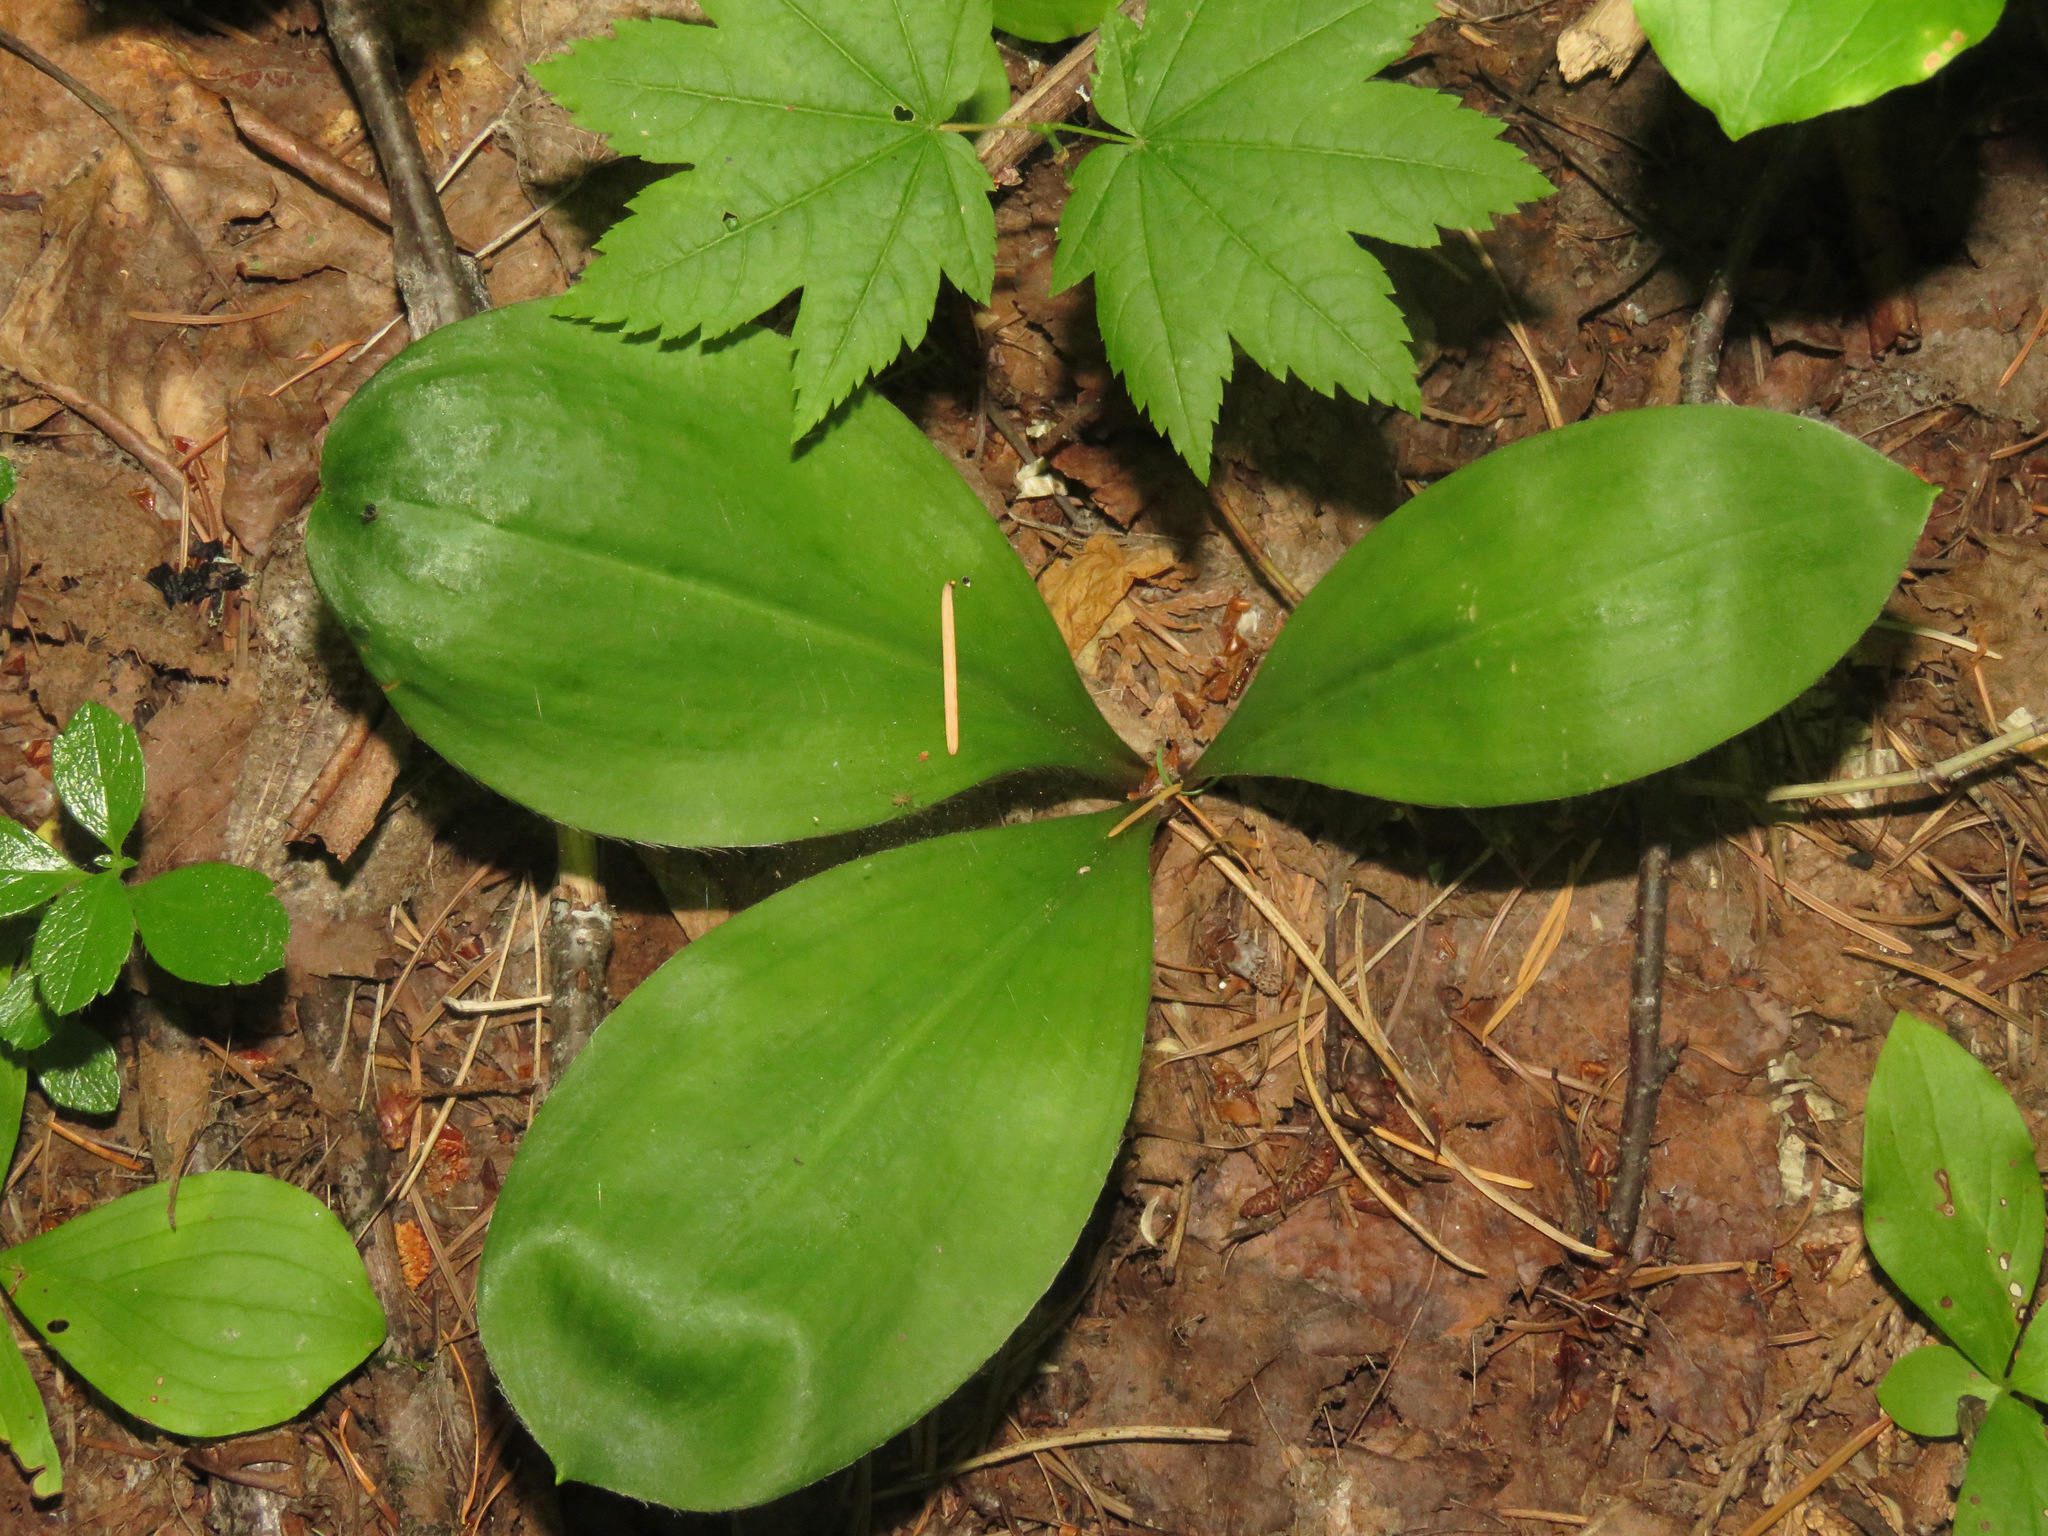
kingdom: Plantae
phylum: Tracheophyta
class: Liliopsida
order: Liliales
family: Liliaceae
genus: Clintonia
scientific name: Clintonia uniflora
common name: Queen's cup
